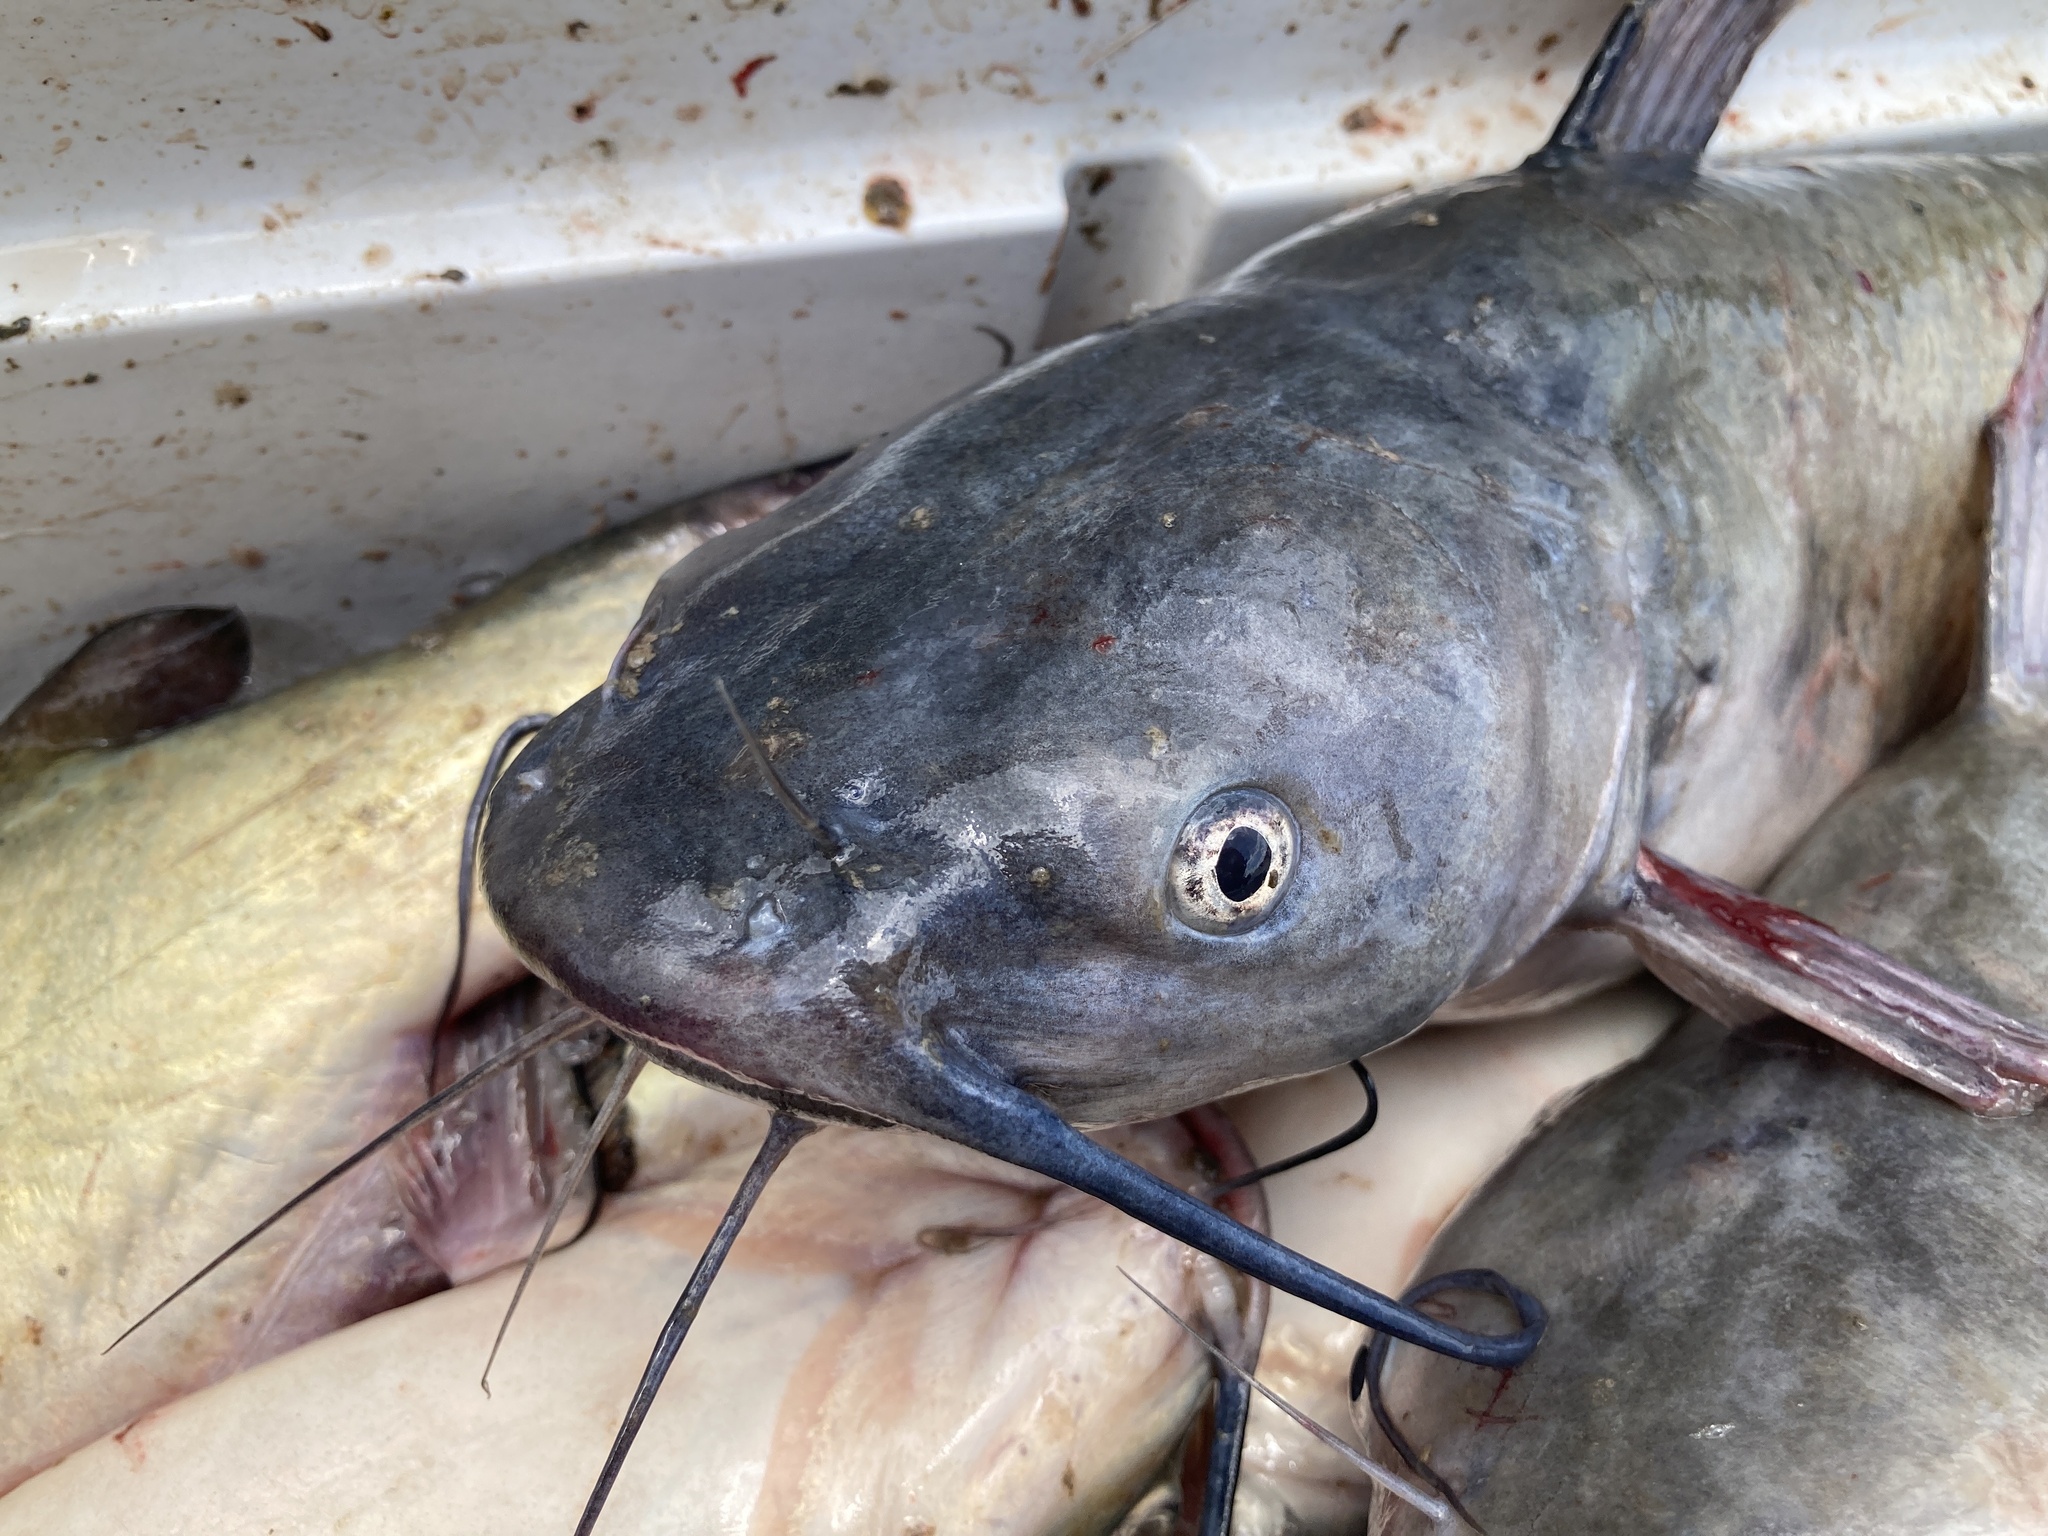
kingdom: Animalia
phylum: Chordata
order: Siluriformes
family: Ictaluridae
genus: Ictalurus
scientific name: Ictalurus punctatus
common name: Channel catfish
